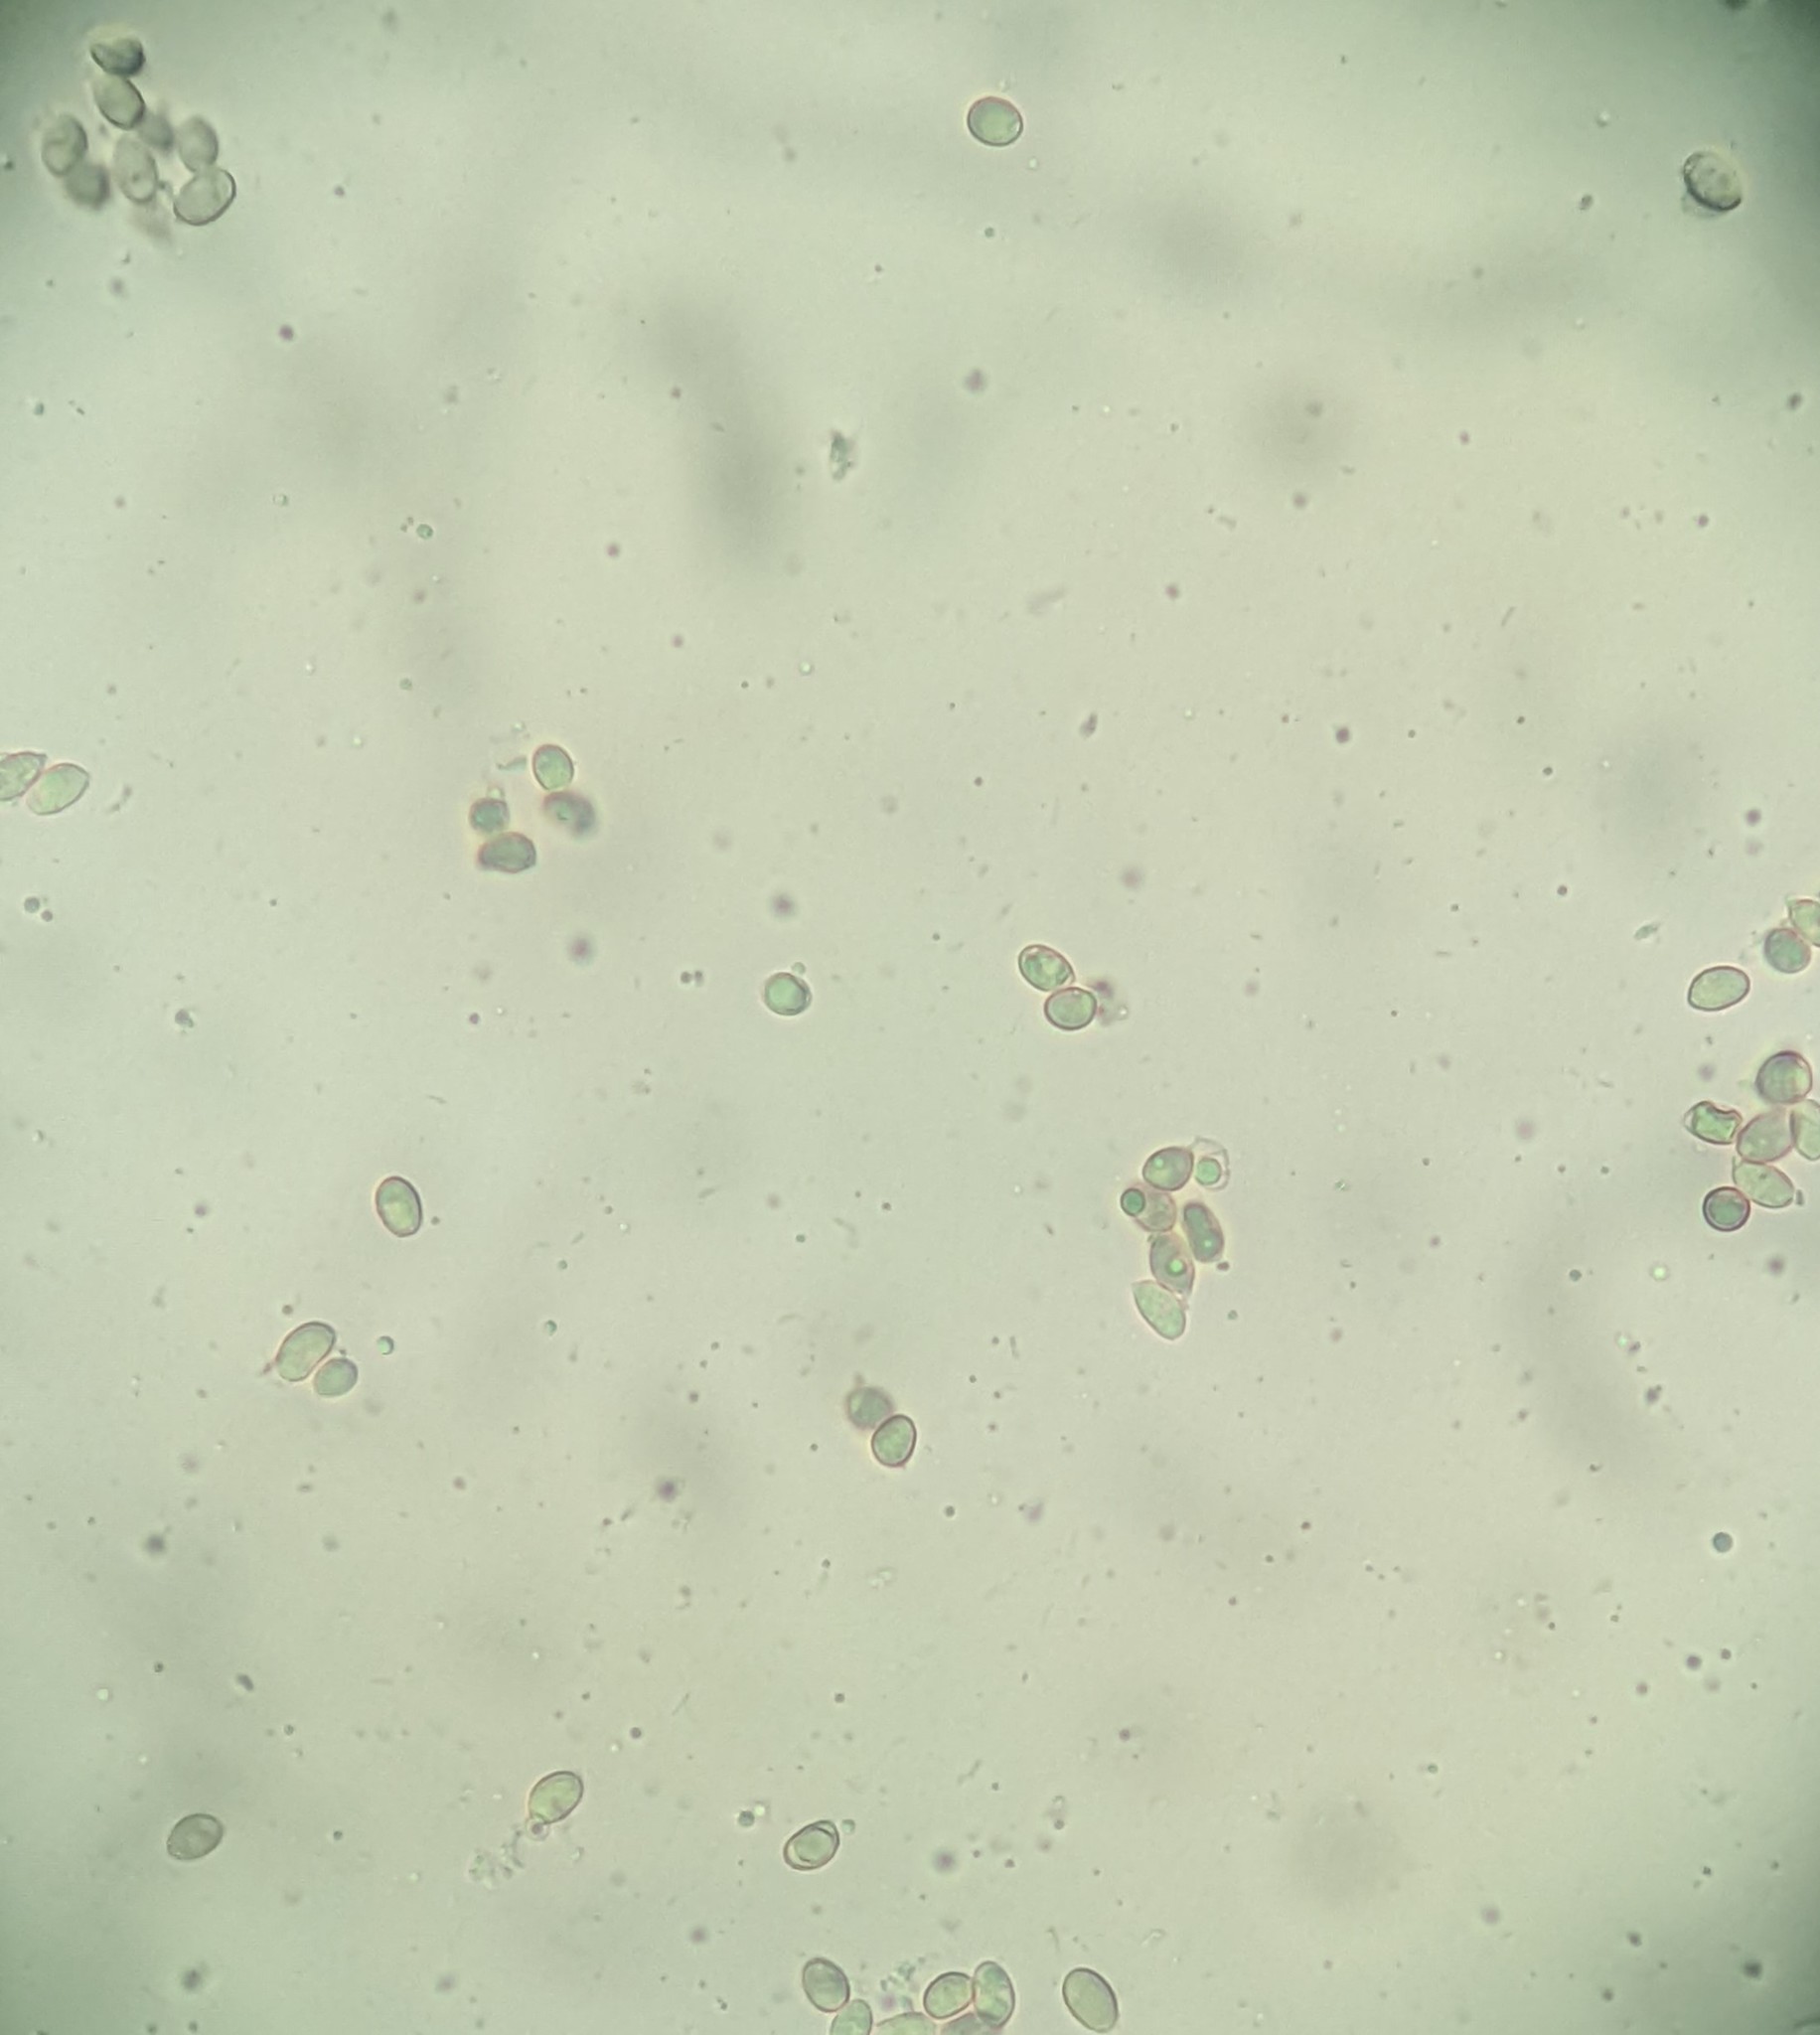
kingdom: Fungi
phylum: Basidiomycota
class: Agaricomycetes
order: Agaricales
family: Psathyrellaceae
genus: Coprinopsis
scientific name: Coprinopsis cineraria
